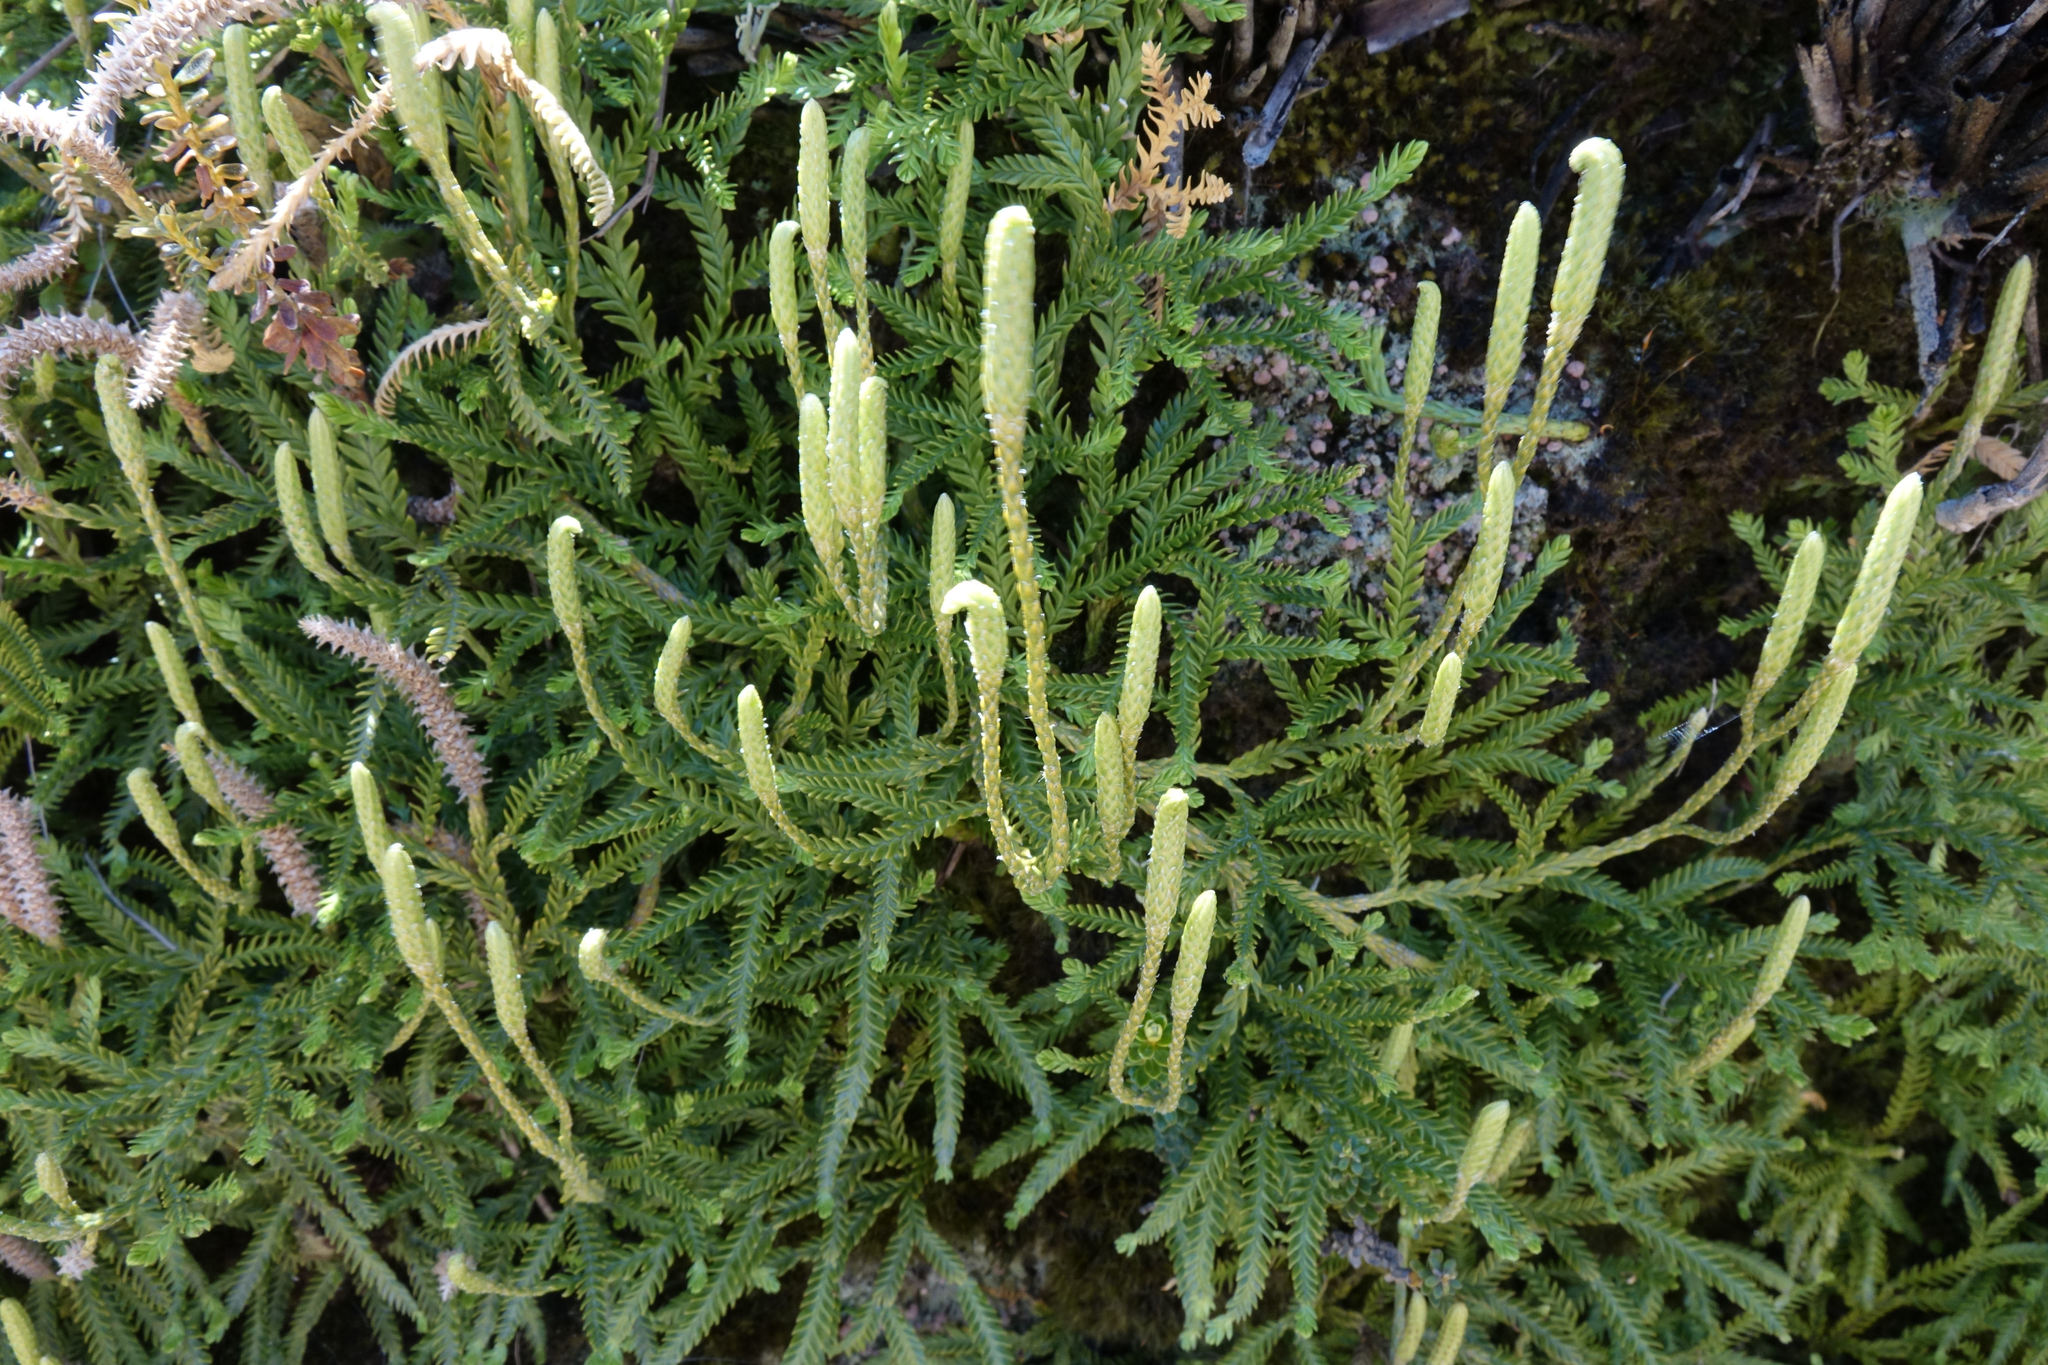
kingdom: Plantae
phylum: Tracheophyta
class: Lycopodiopsida
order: Lycopodiales
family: Lycopodiaceae
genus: Diphasium
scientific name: Diphasium scariosum
